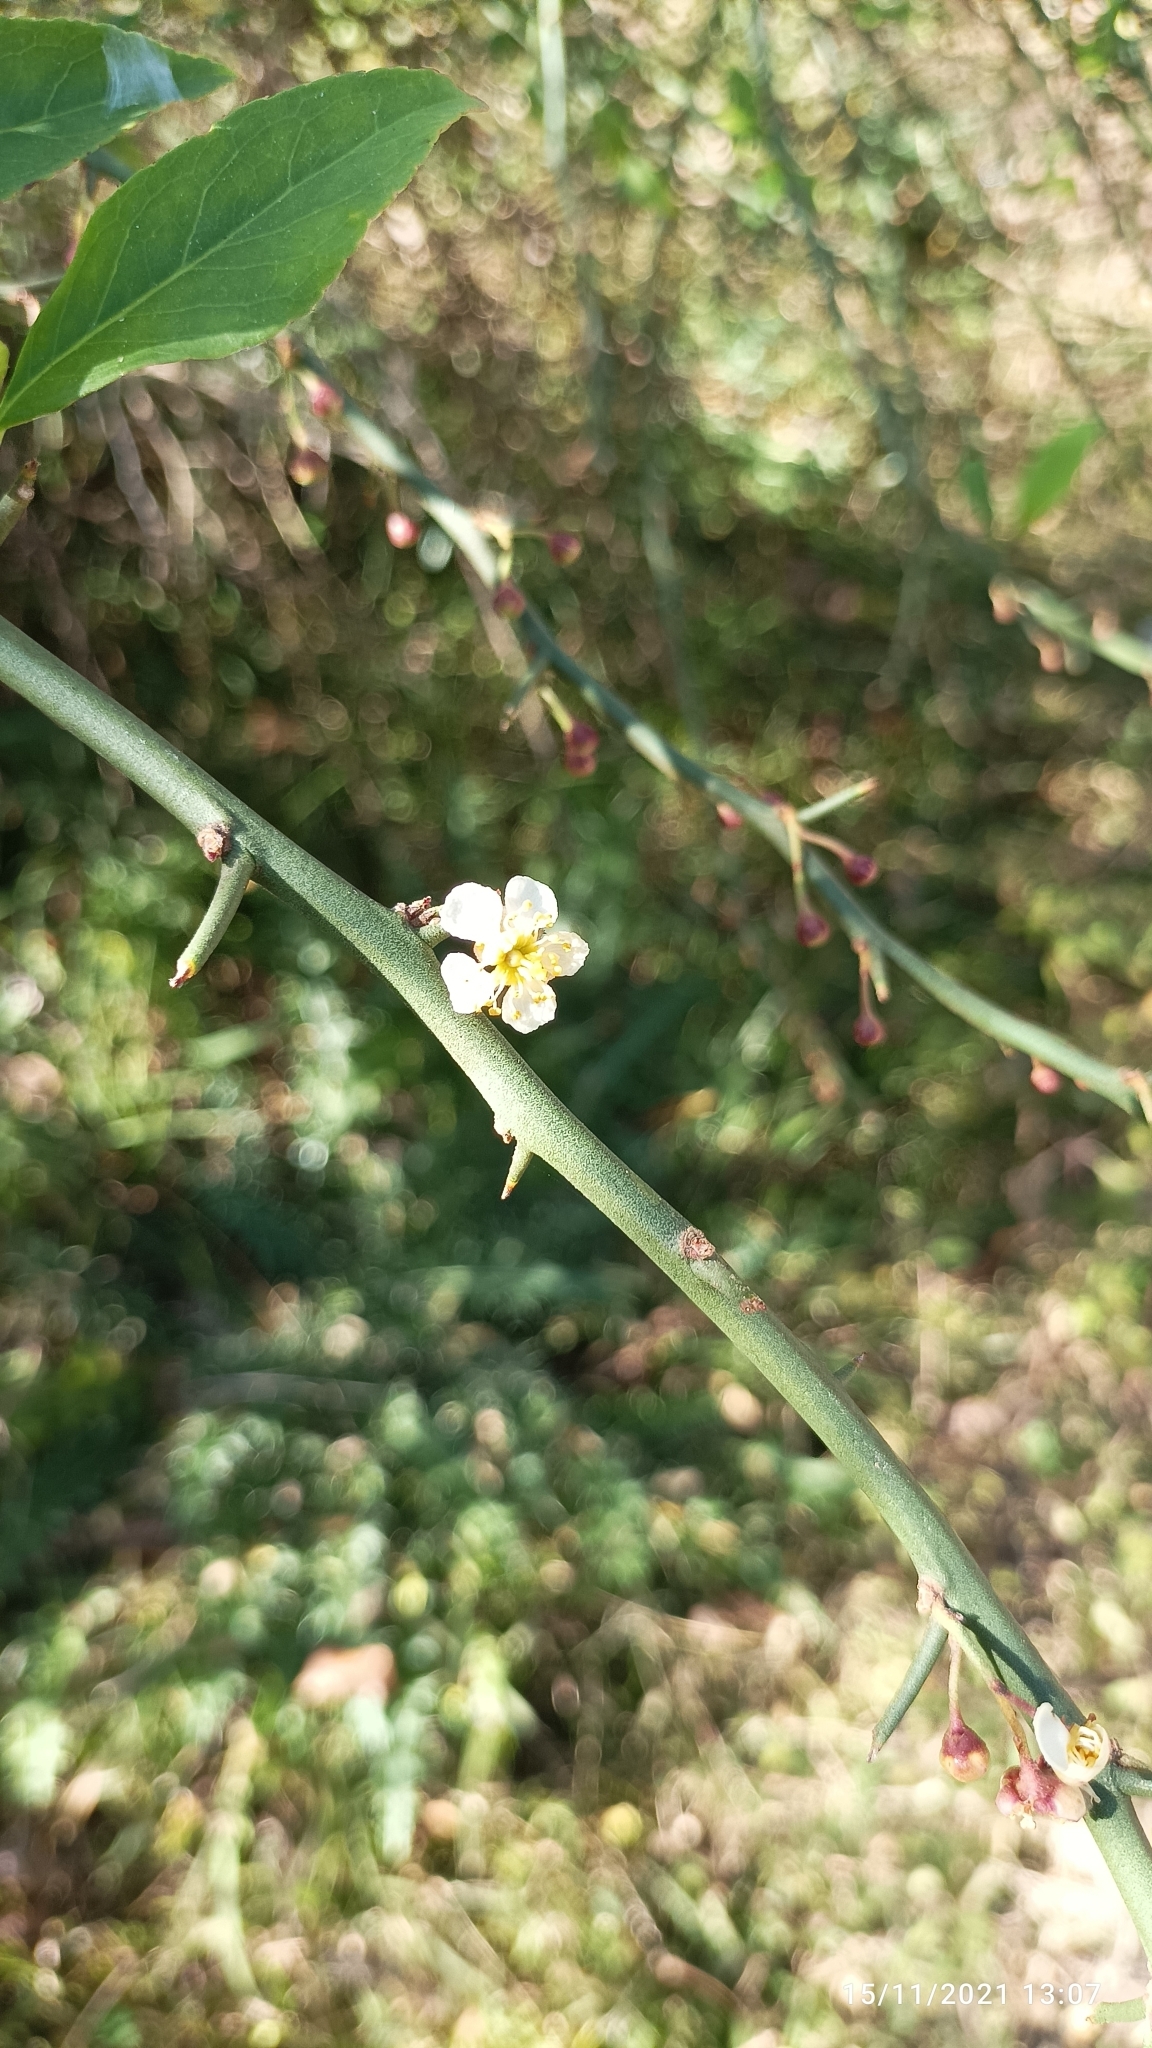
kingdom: Plantae
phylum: Tracheophyta
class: Magnoliopsida
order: Rosales
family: Rosaceae
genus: Prinsepia
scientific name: Prinsepia utilis
